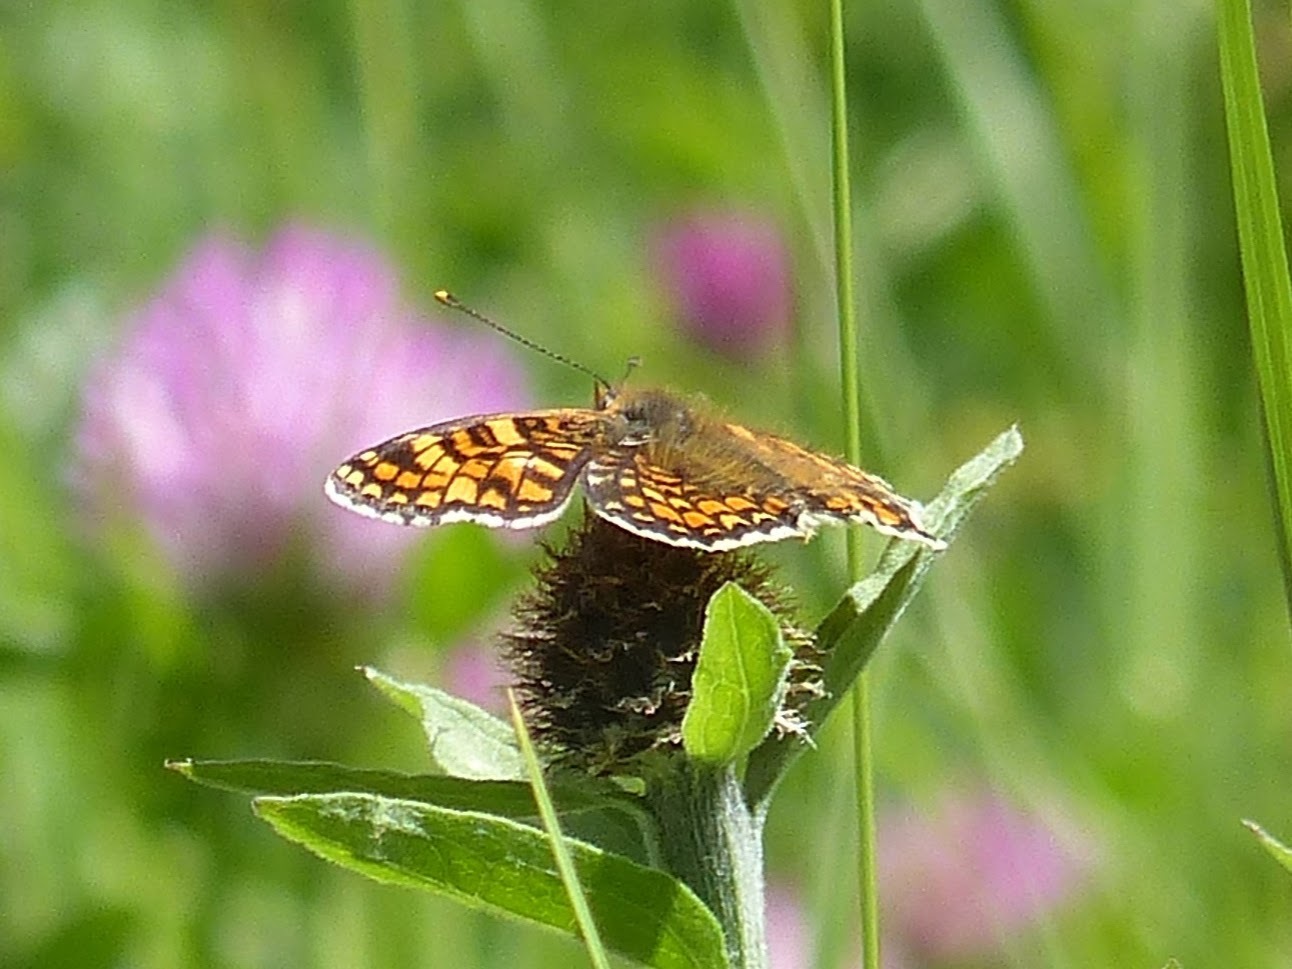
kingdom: Animalia
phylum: Arthropoda
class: Insecta
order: Lepidoptera
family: Nymphalidae
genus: Melitaea
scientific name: Melitaea phoebe
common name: Knapweed fritillary
